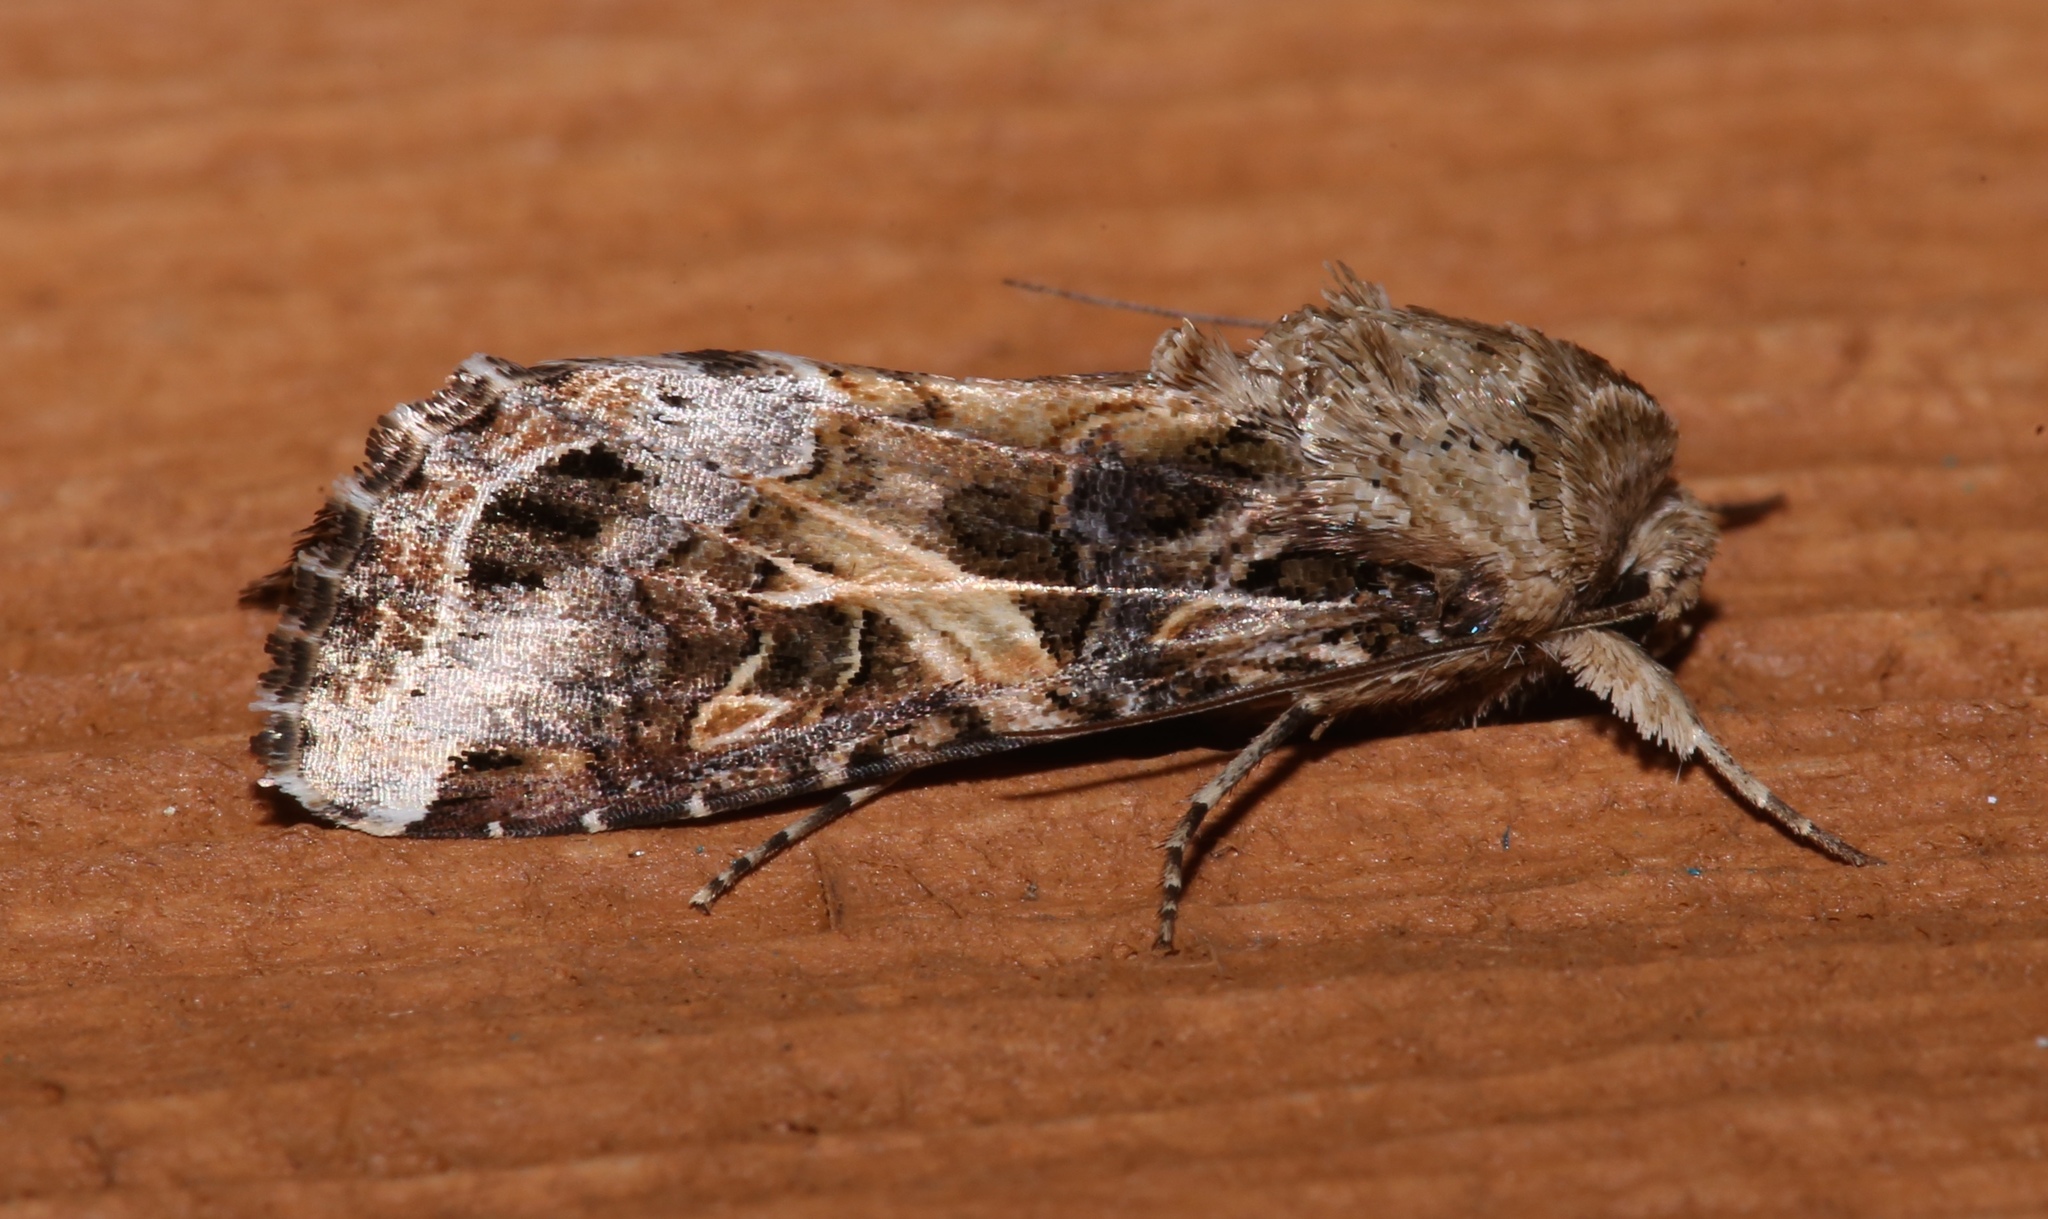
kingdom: Animalia
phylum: Arthropoda
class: Insecta
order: Lepidoptera
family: Noctuidae
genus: Spodoptera
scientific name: Spodoptera ornithogalli
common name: Yellow-striped armyworm
